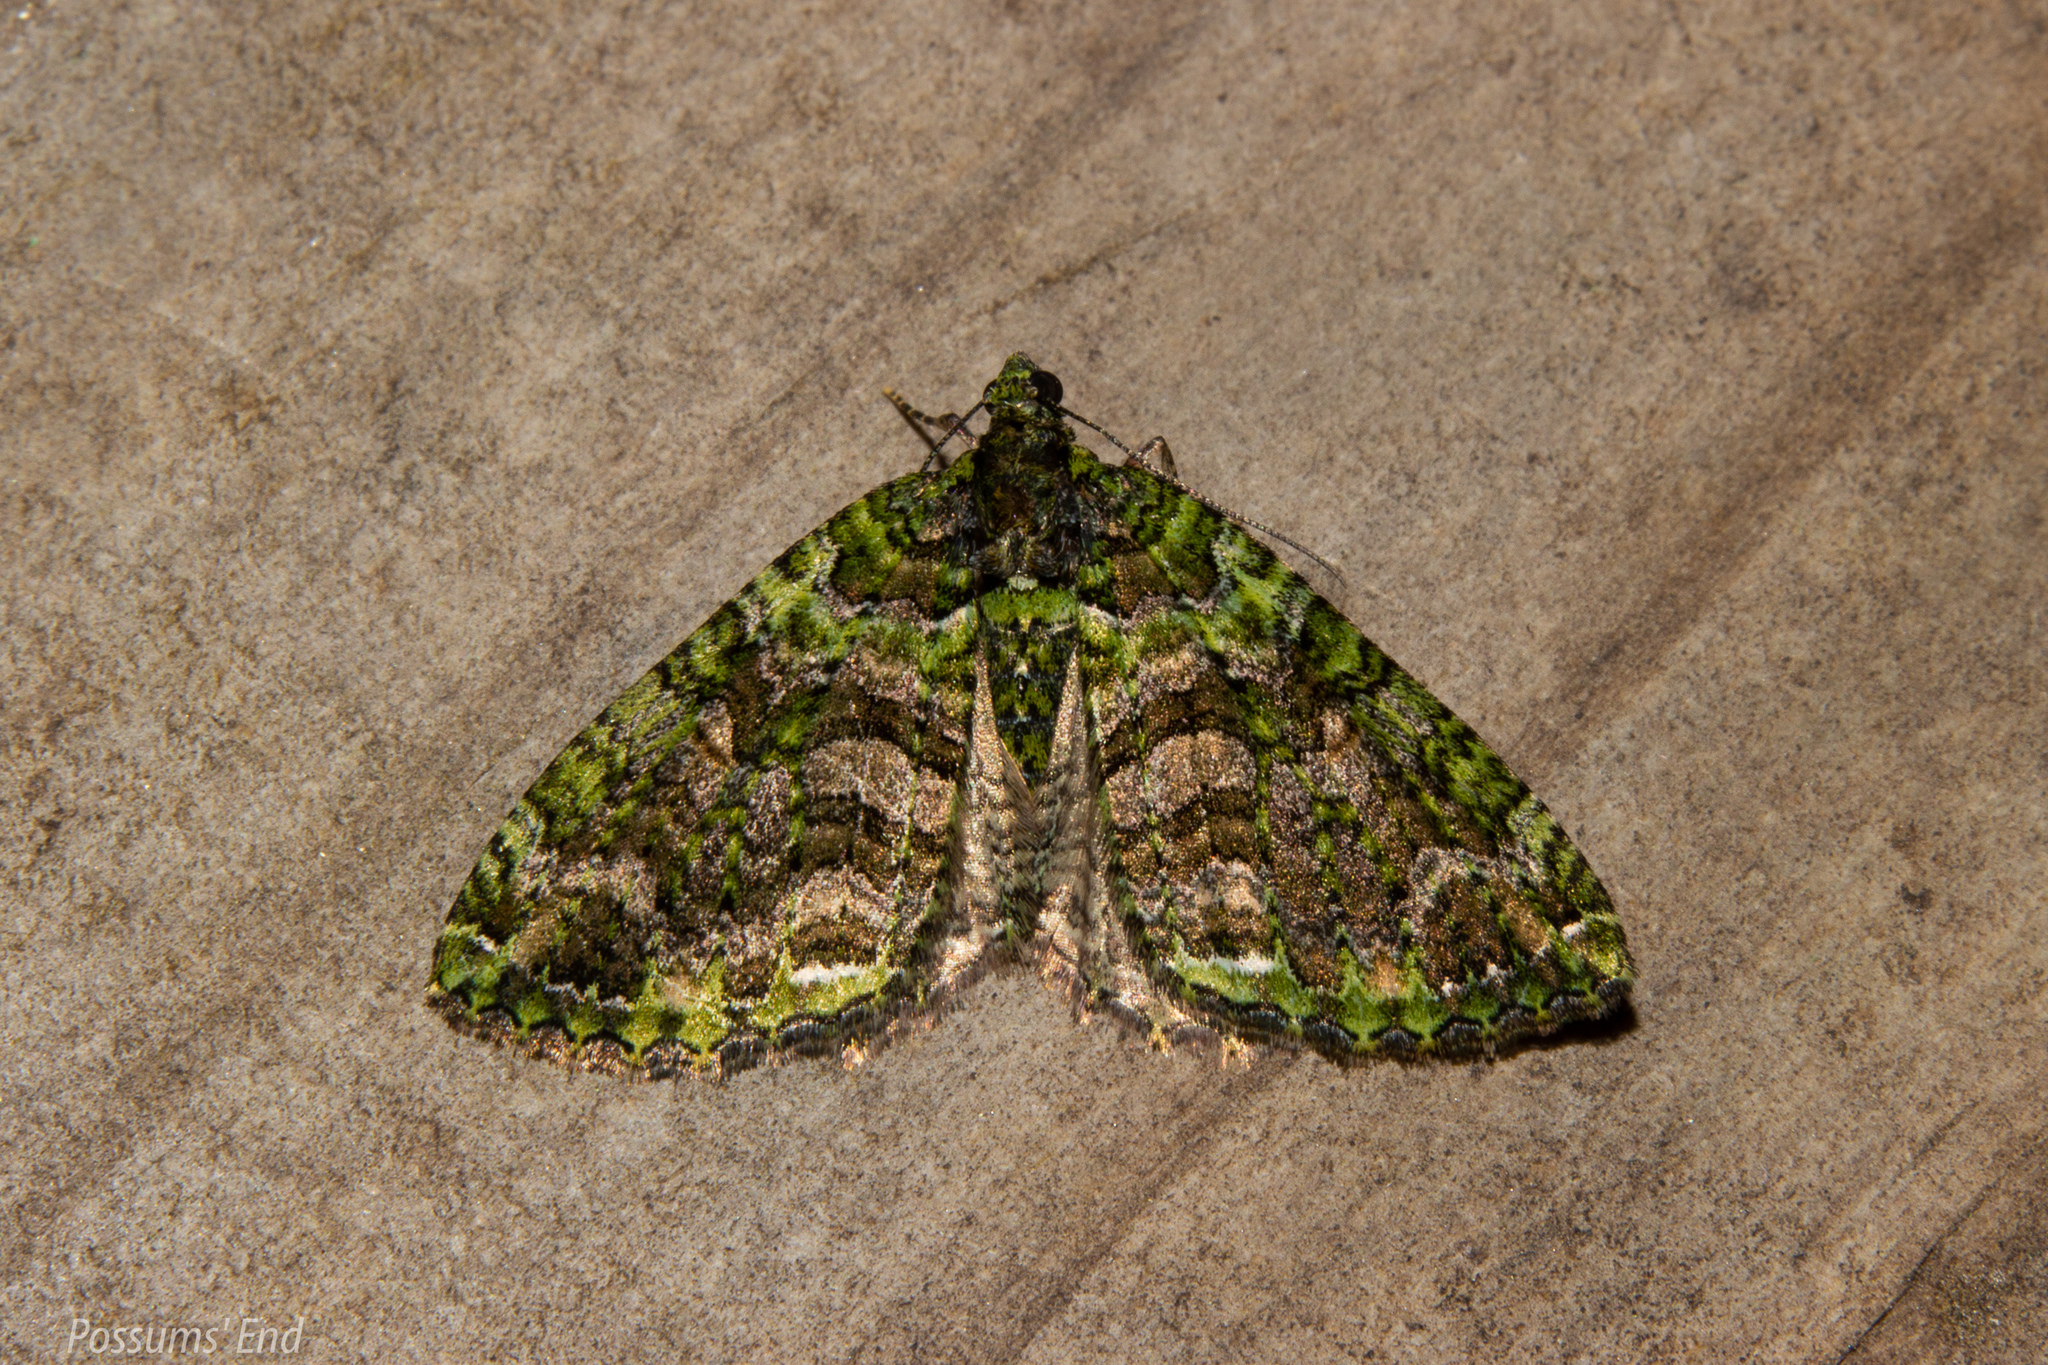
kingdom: Animalia
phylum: Arthropoda
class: Insecta
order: Lepidoptera
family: Geometridae
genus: Austrocidaria
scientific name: Austrocidaria similata
